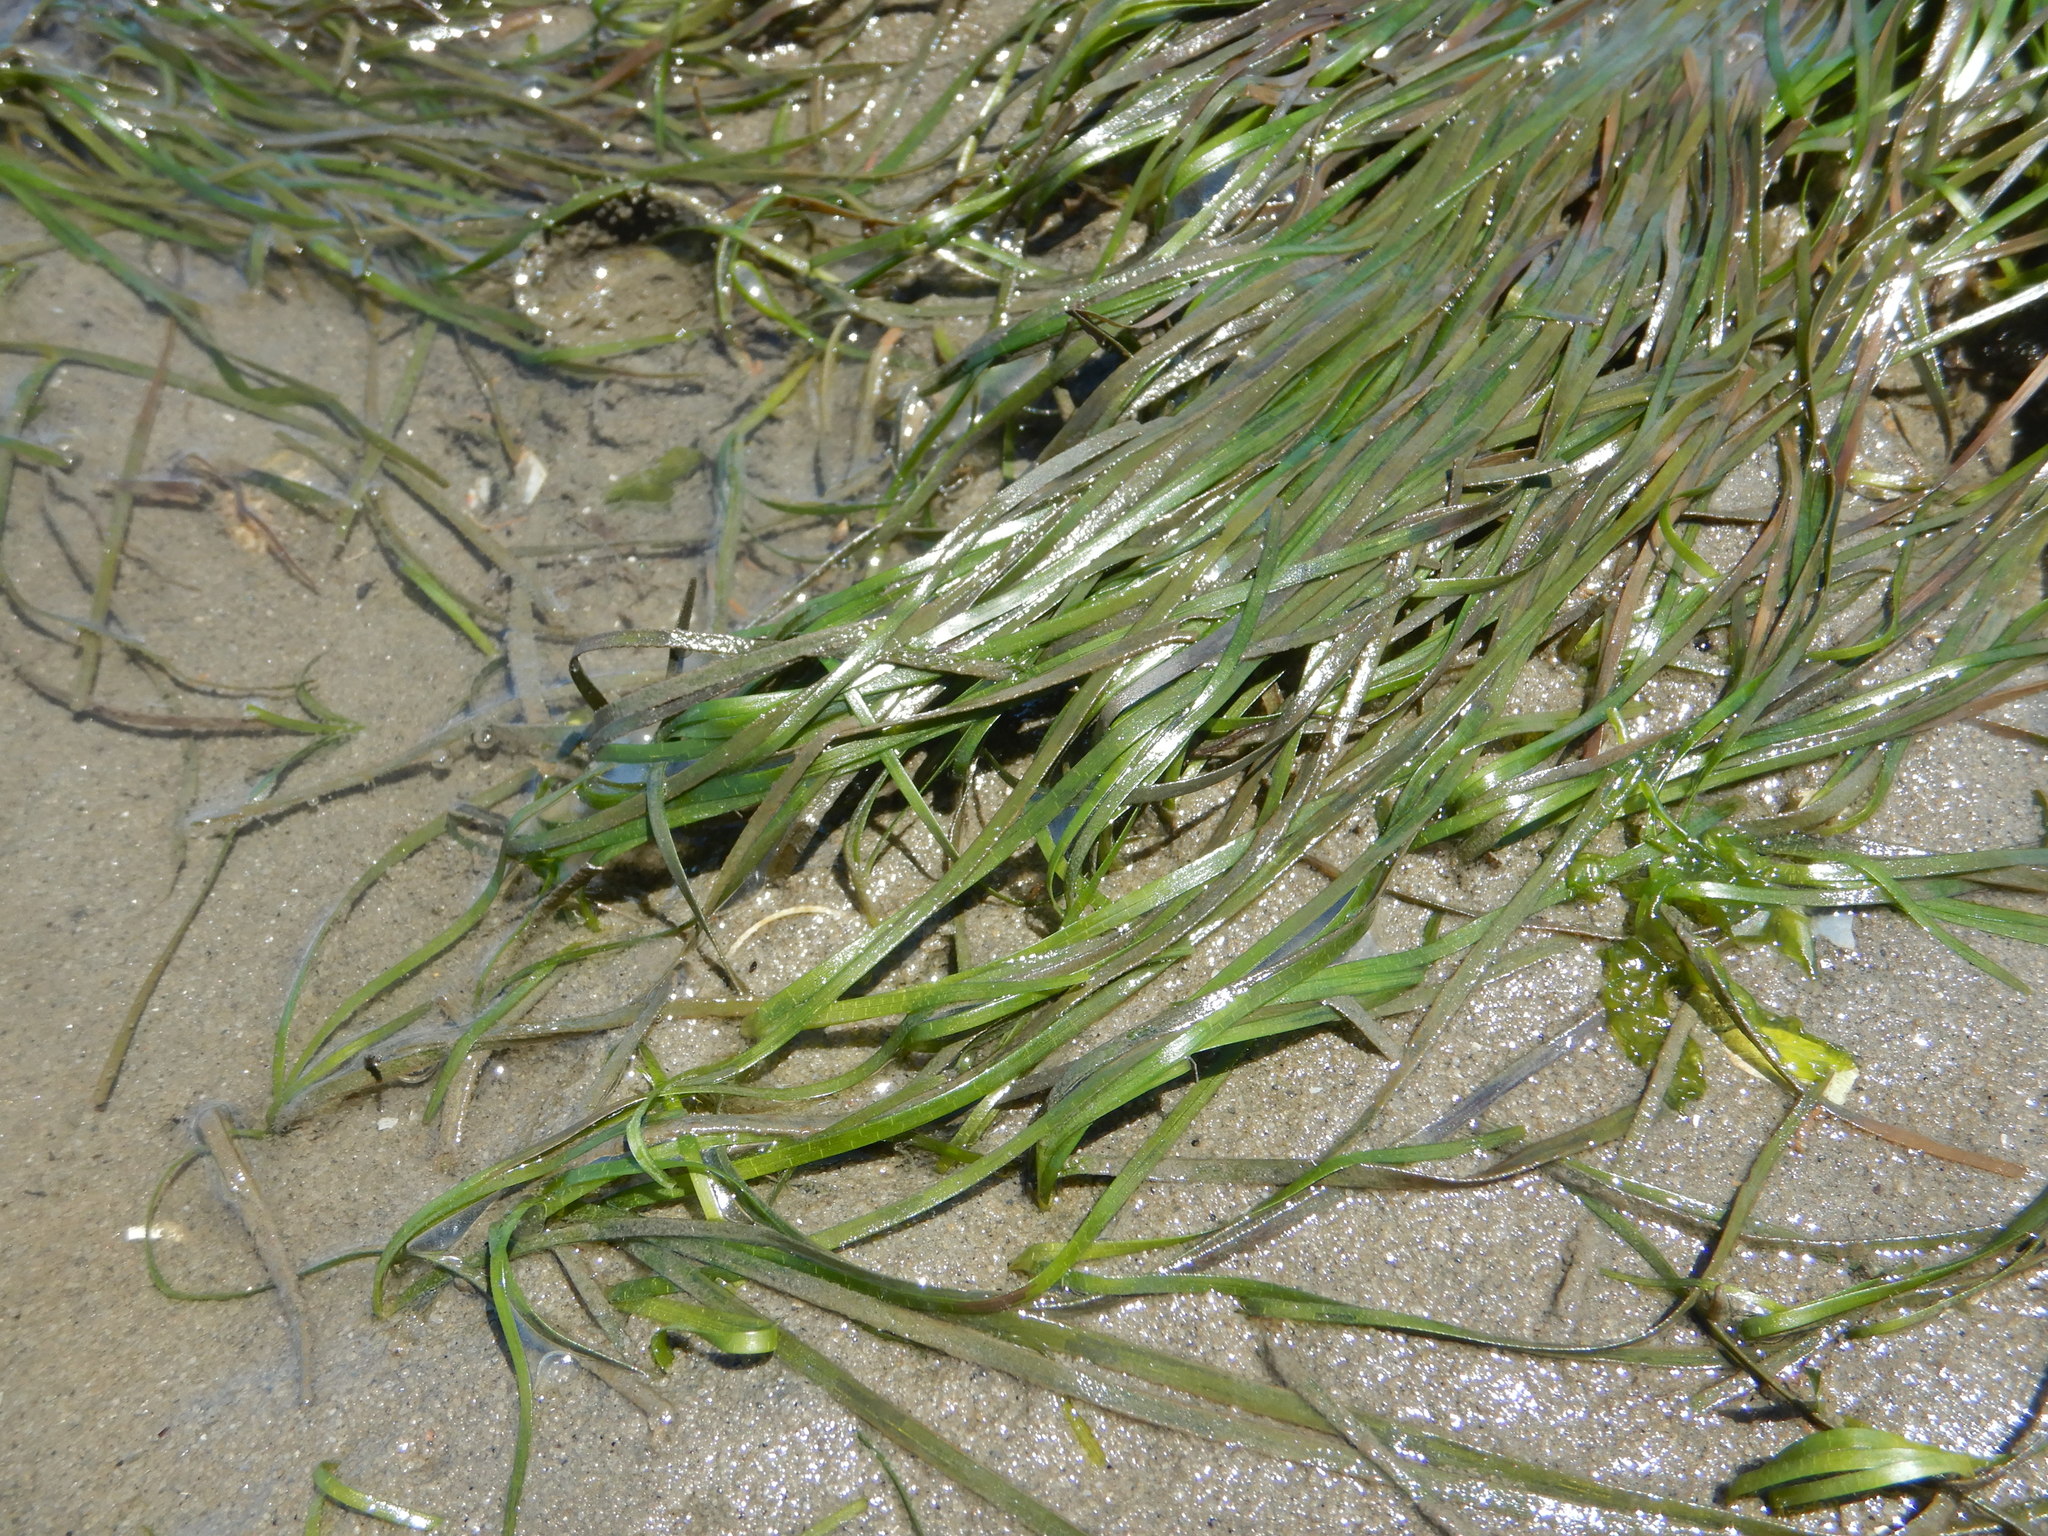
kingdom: Plantae
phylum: Tracheophyta
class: Liliopsida
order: Alismatales
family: Zosteraceae
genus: Zostera
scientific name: Zostera noltii
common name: Dwarf eelgrass
